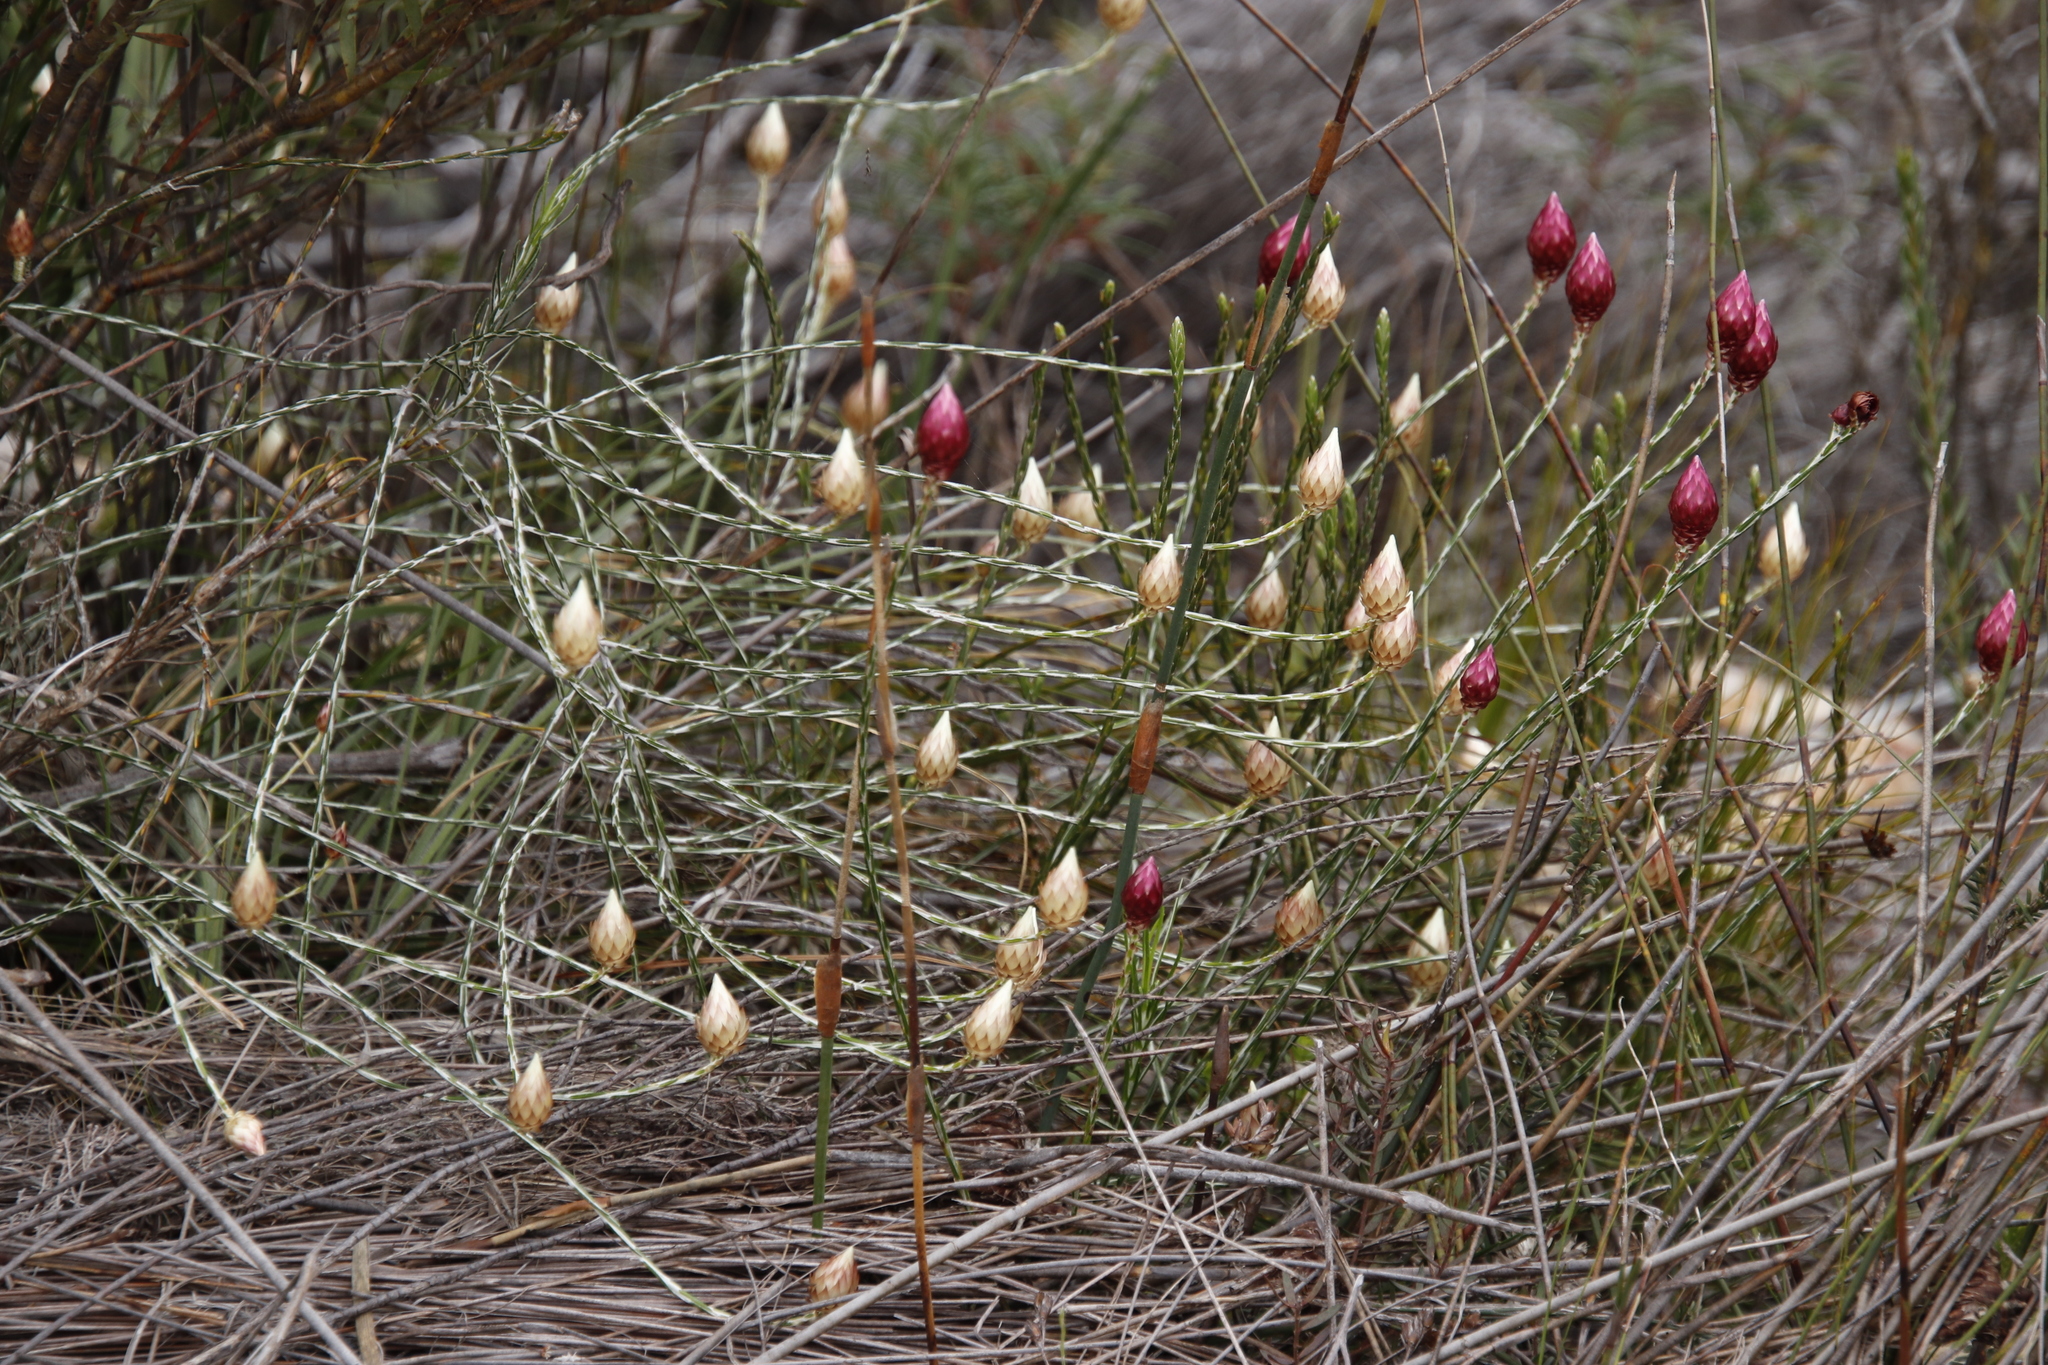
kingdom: Plantae
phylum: Tracheophyta
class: Magnoliopsida
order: Asterales
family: Asteraceae
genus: Edmondia
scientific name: Edmondia sesamoides
